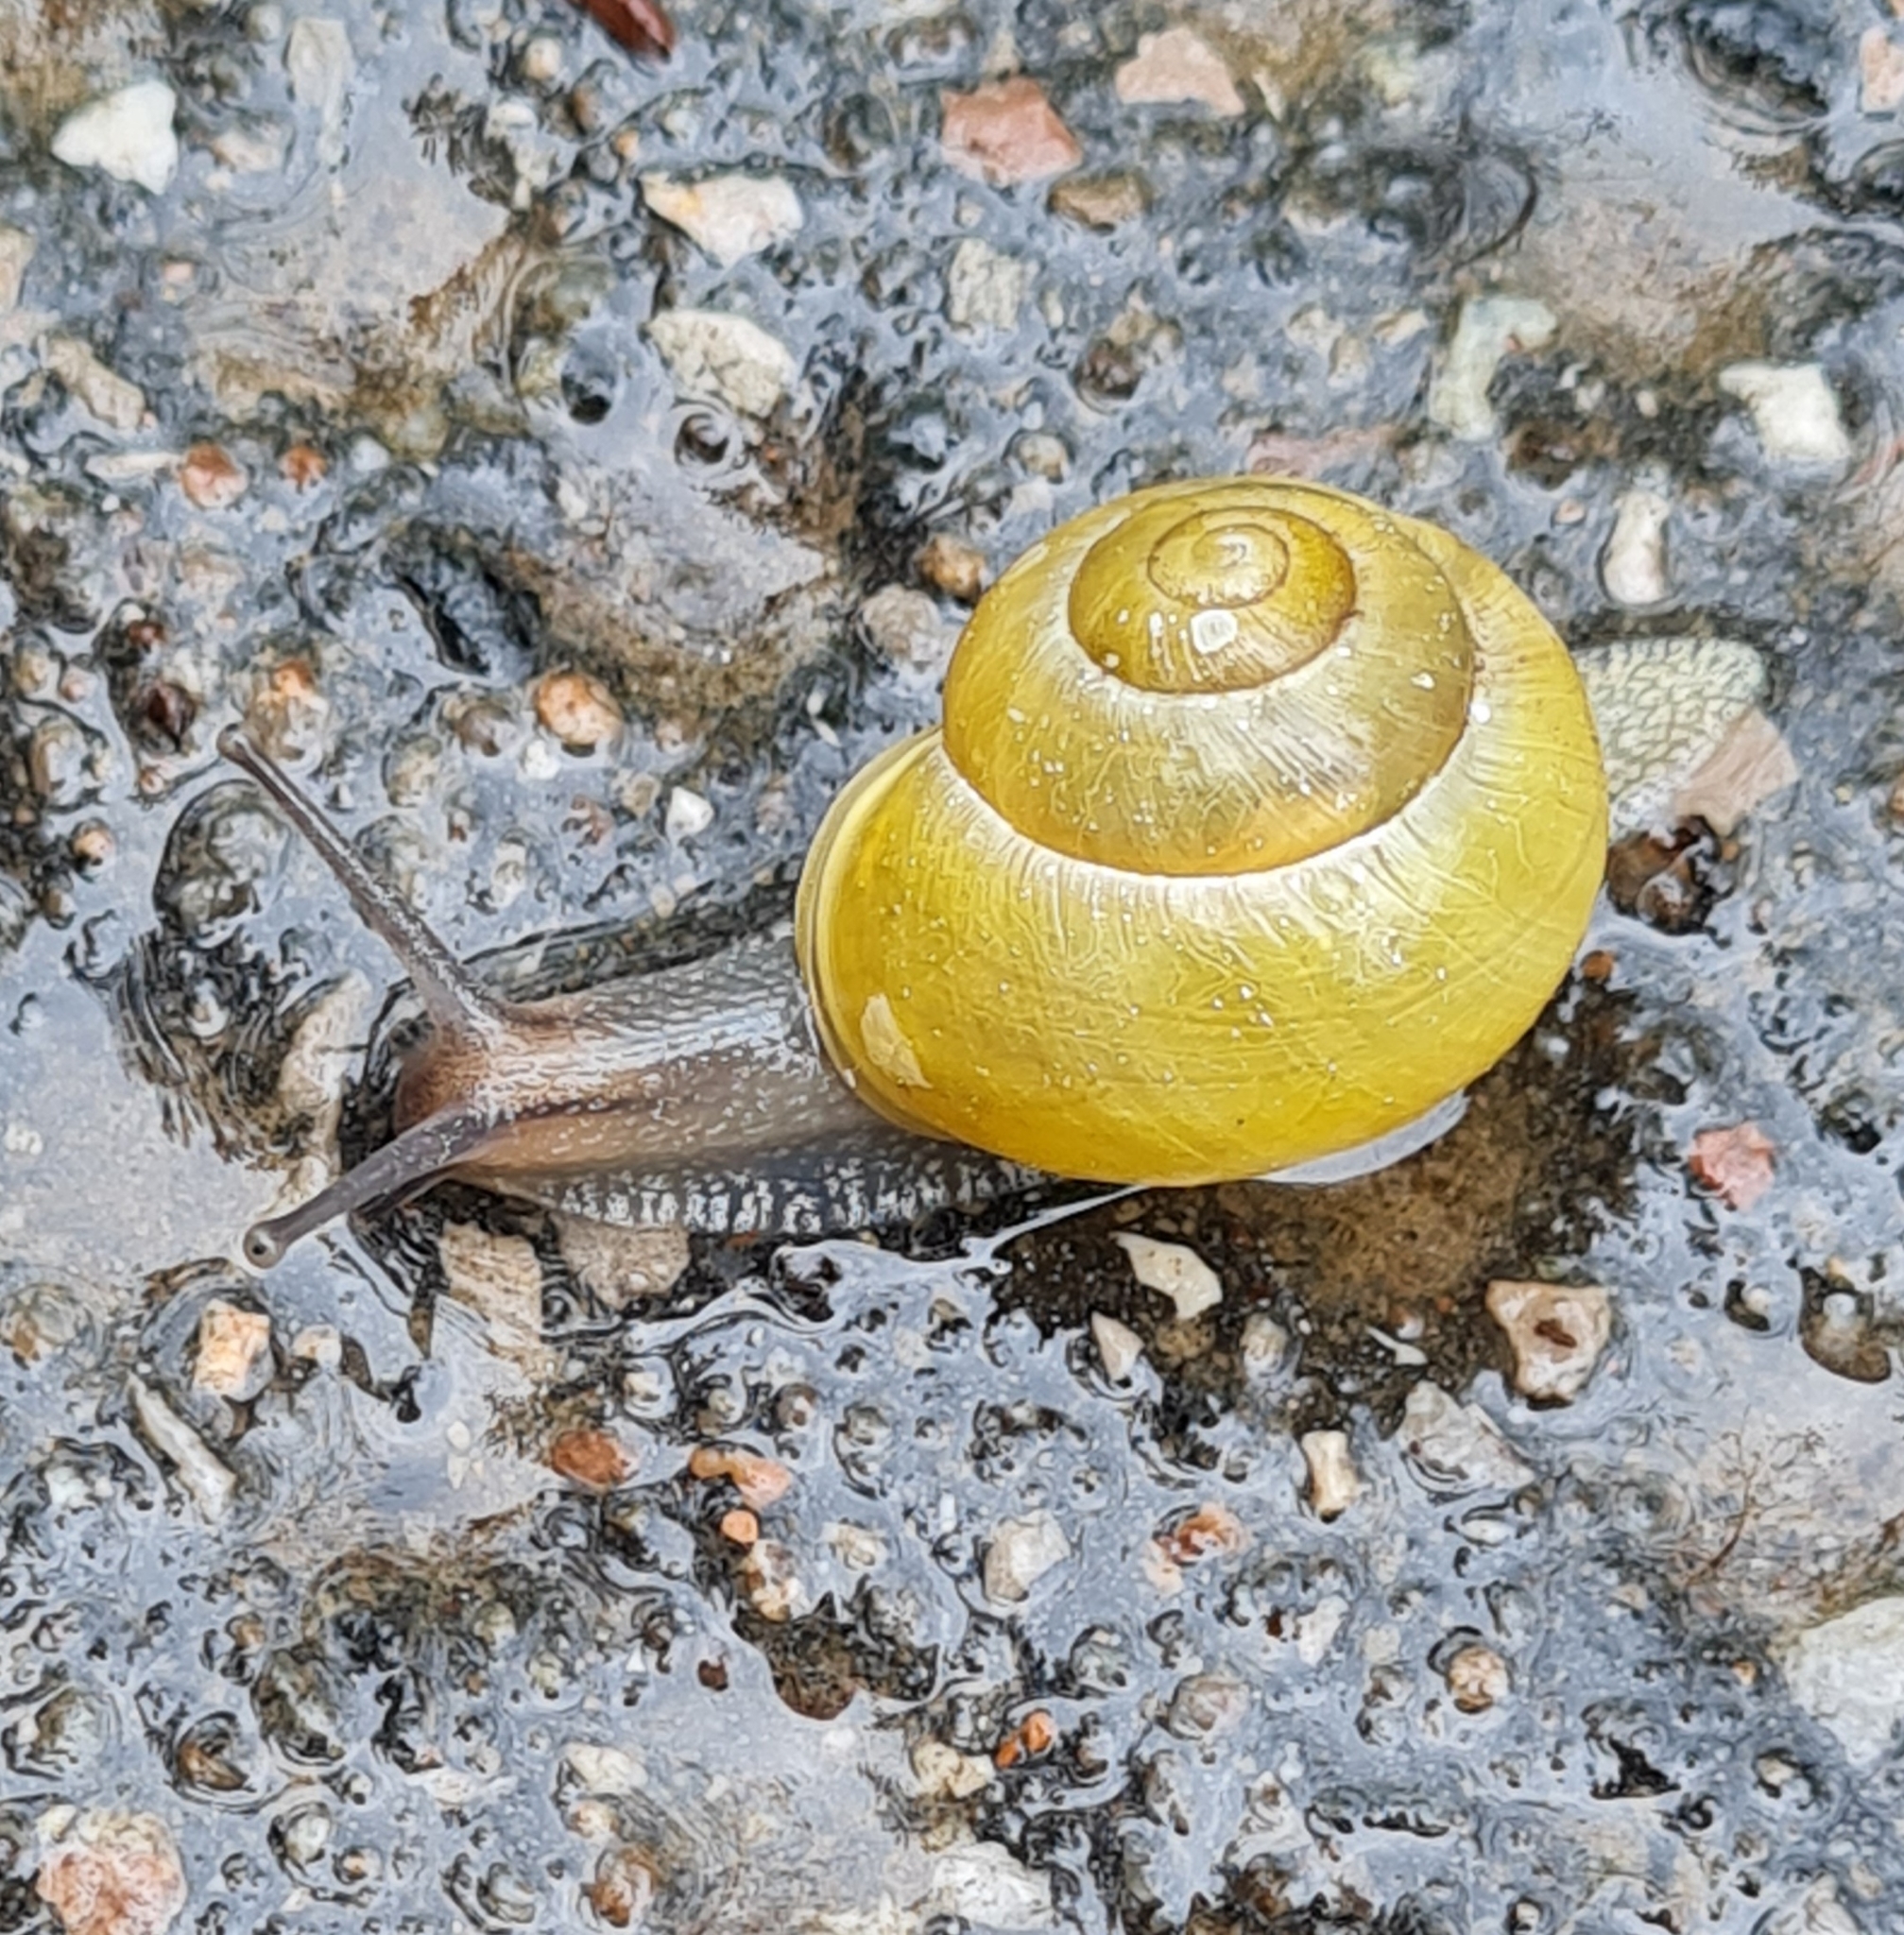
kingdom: Animalia
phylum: Mollusca
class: Gastropoda
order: Stylommatophora
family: Helicidae
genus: Cepaea
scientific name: Cepaea hortensis
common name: White-lip gardensnail
